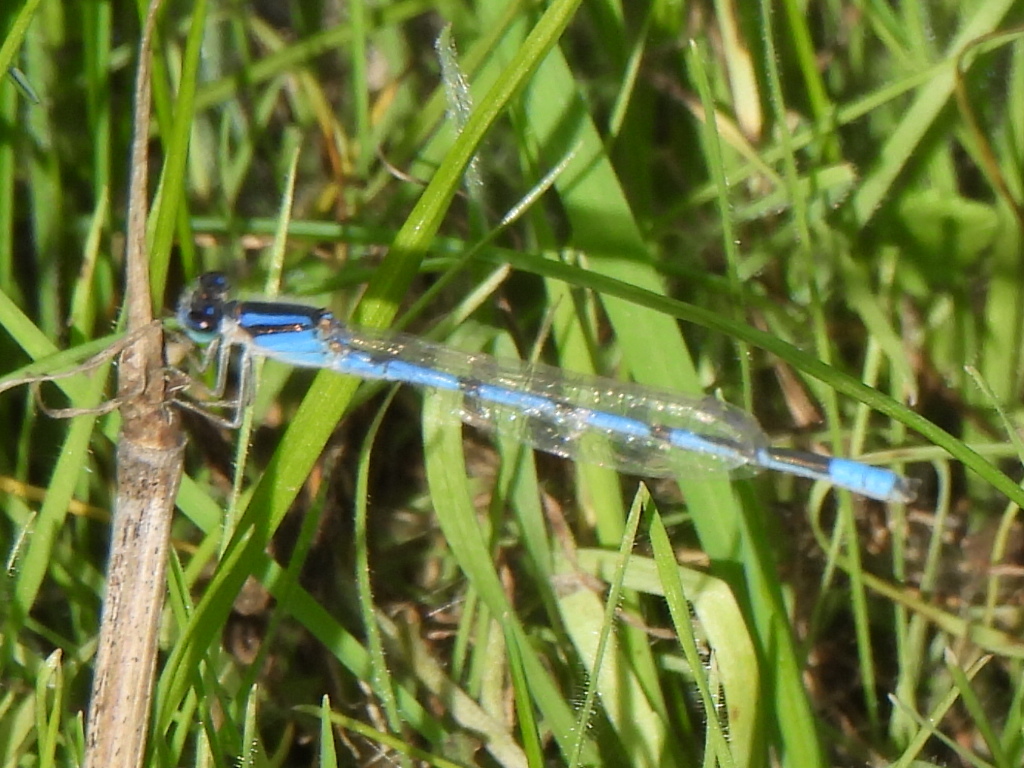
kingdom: Animalia
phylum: Arthropoda
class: Insecta
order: Odonata
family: Coenagrionidae
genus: Enallagma
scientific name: Enallagma civile
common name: Damselfly
